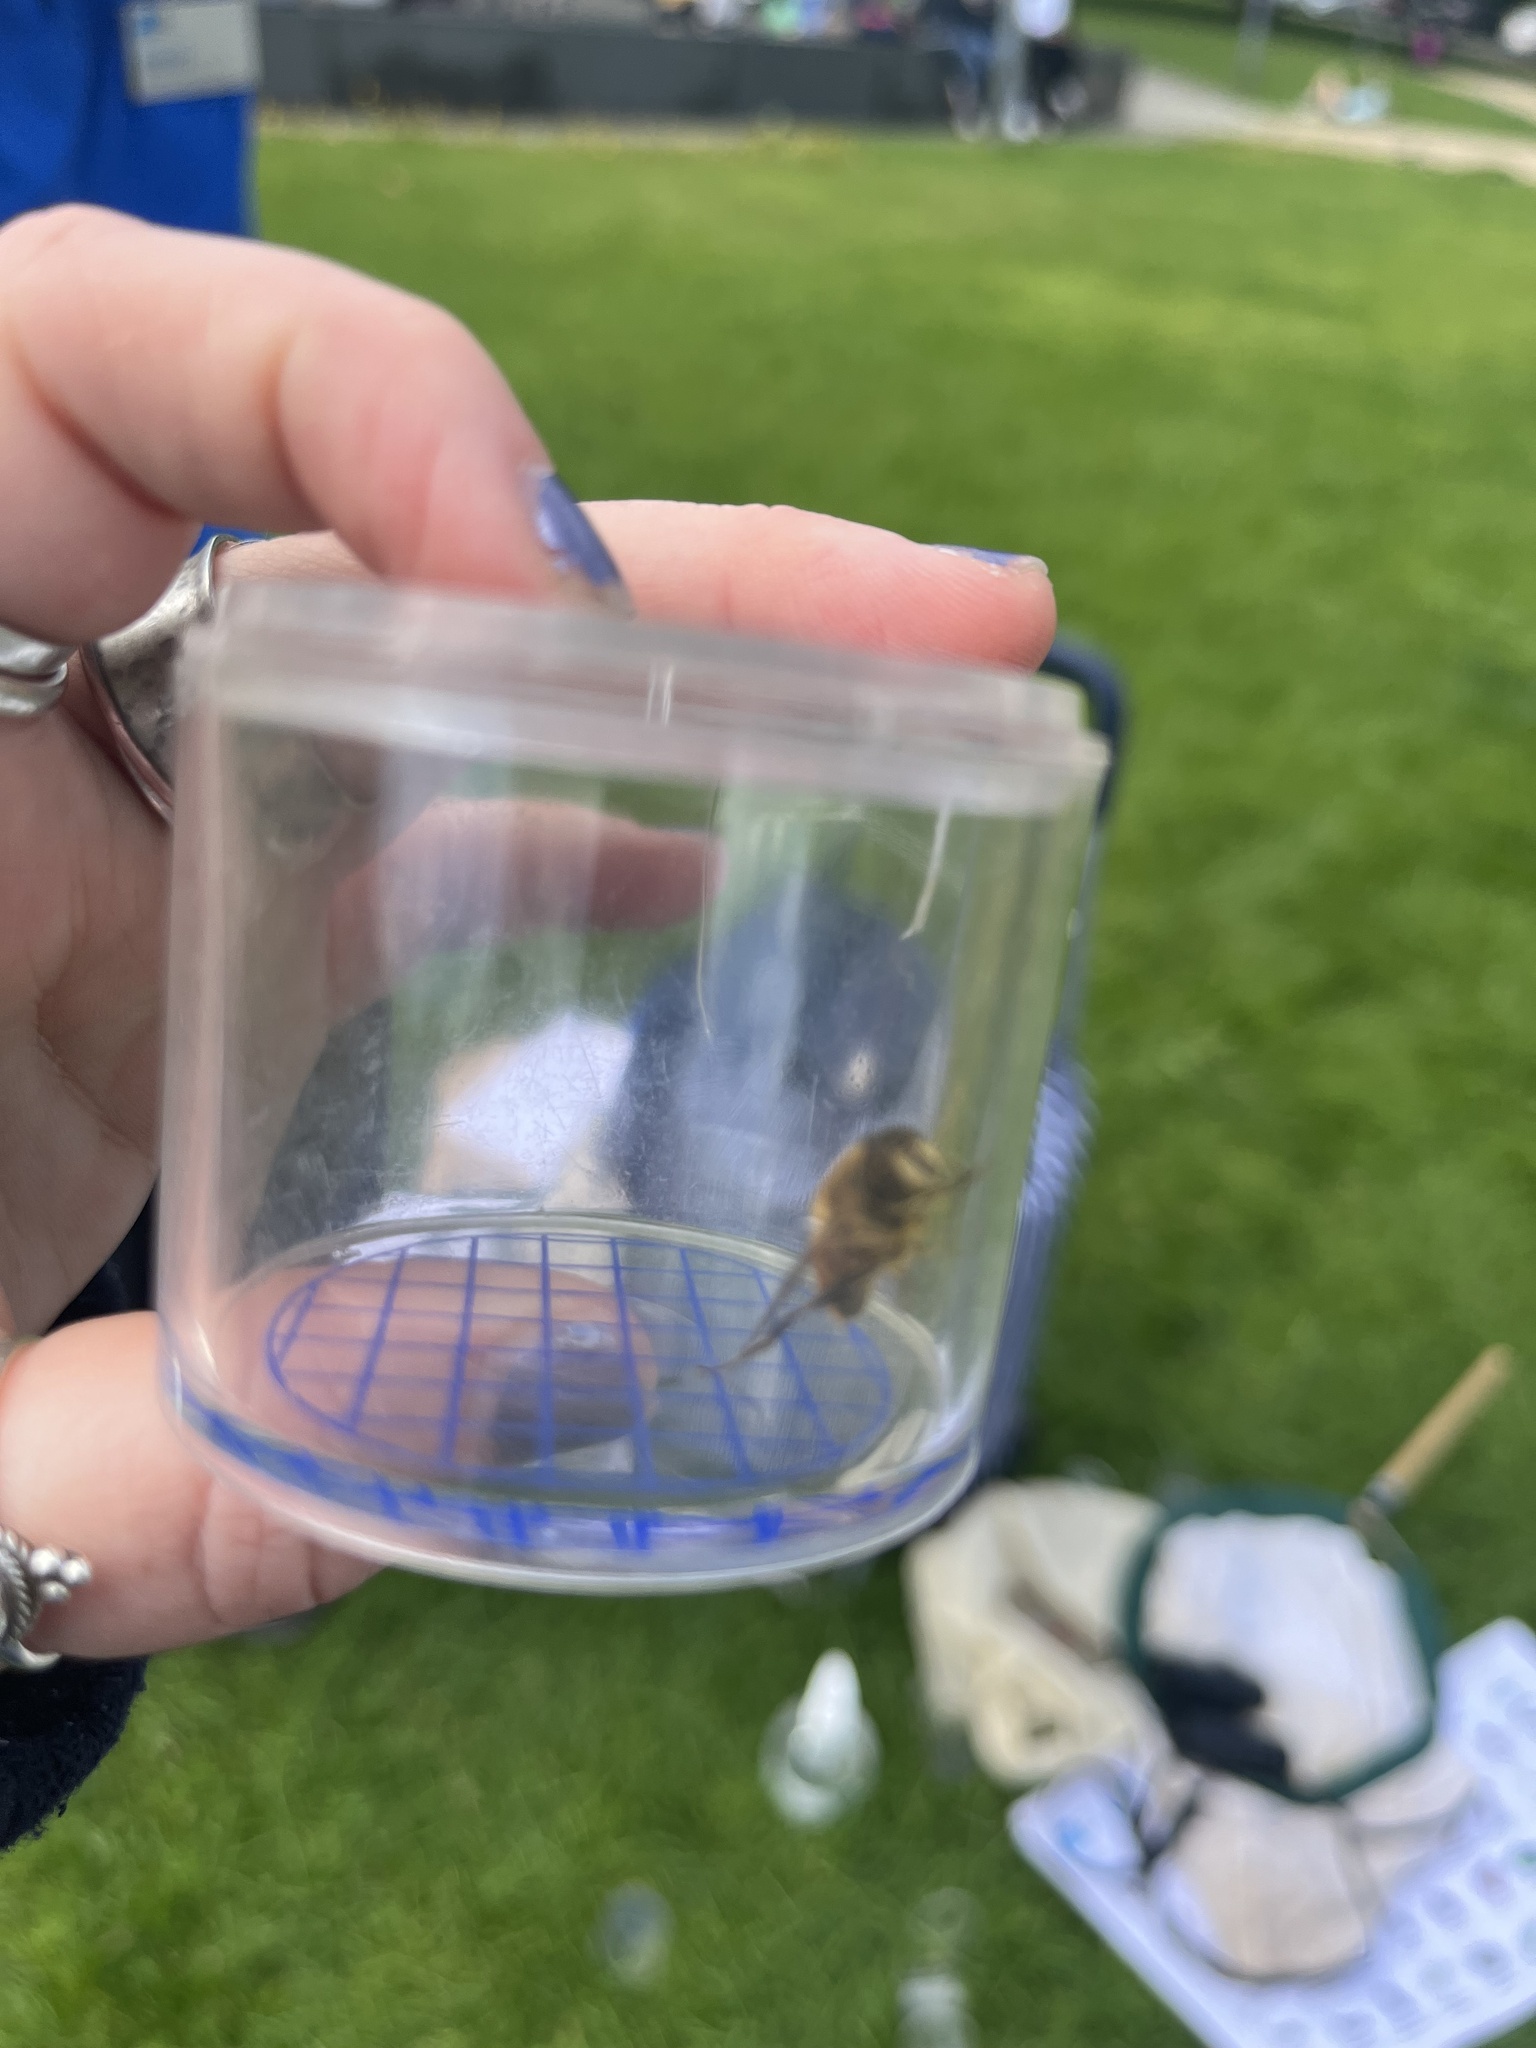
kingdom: Animalia
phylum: Arthropoda
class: Insecta
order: Diptera
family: Syrphidae
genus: Eristalis
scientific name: Eristalis tenax
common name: Drone fly
